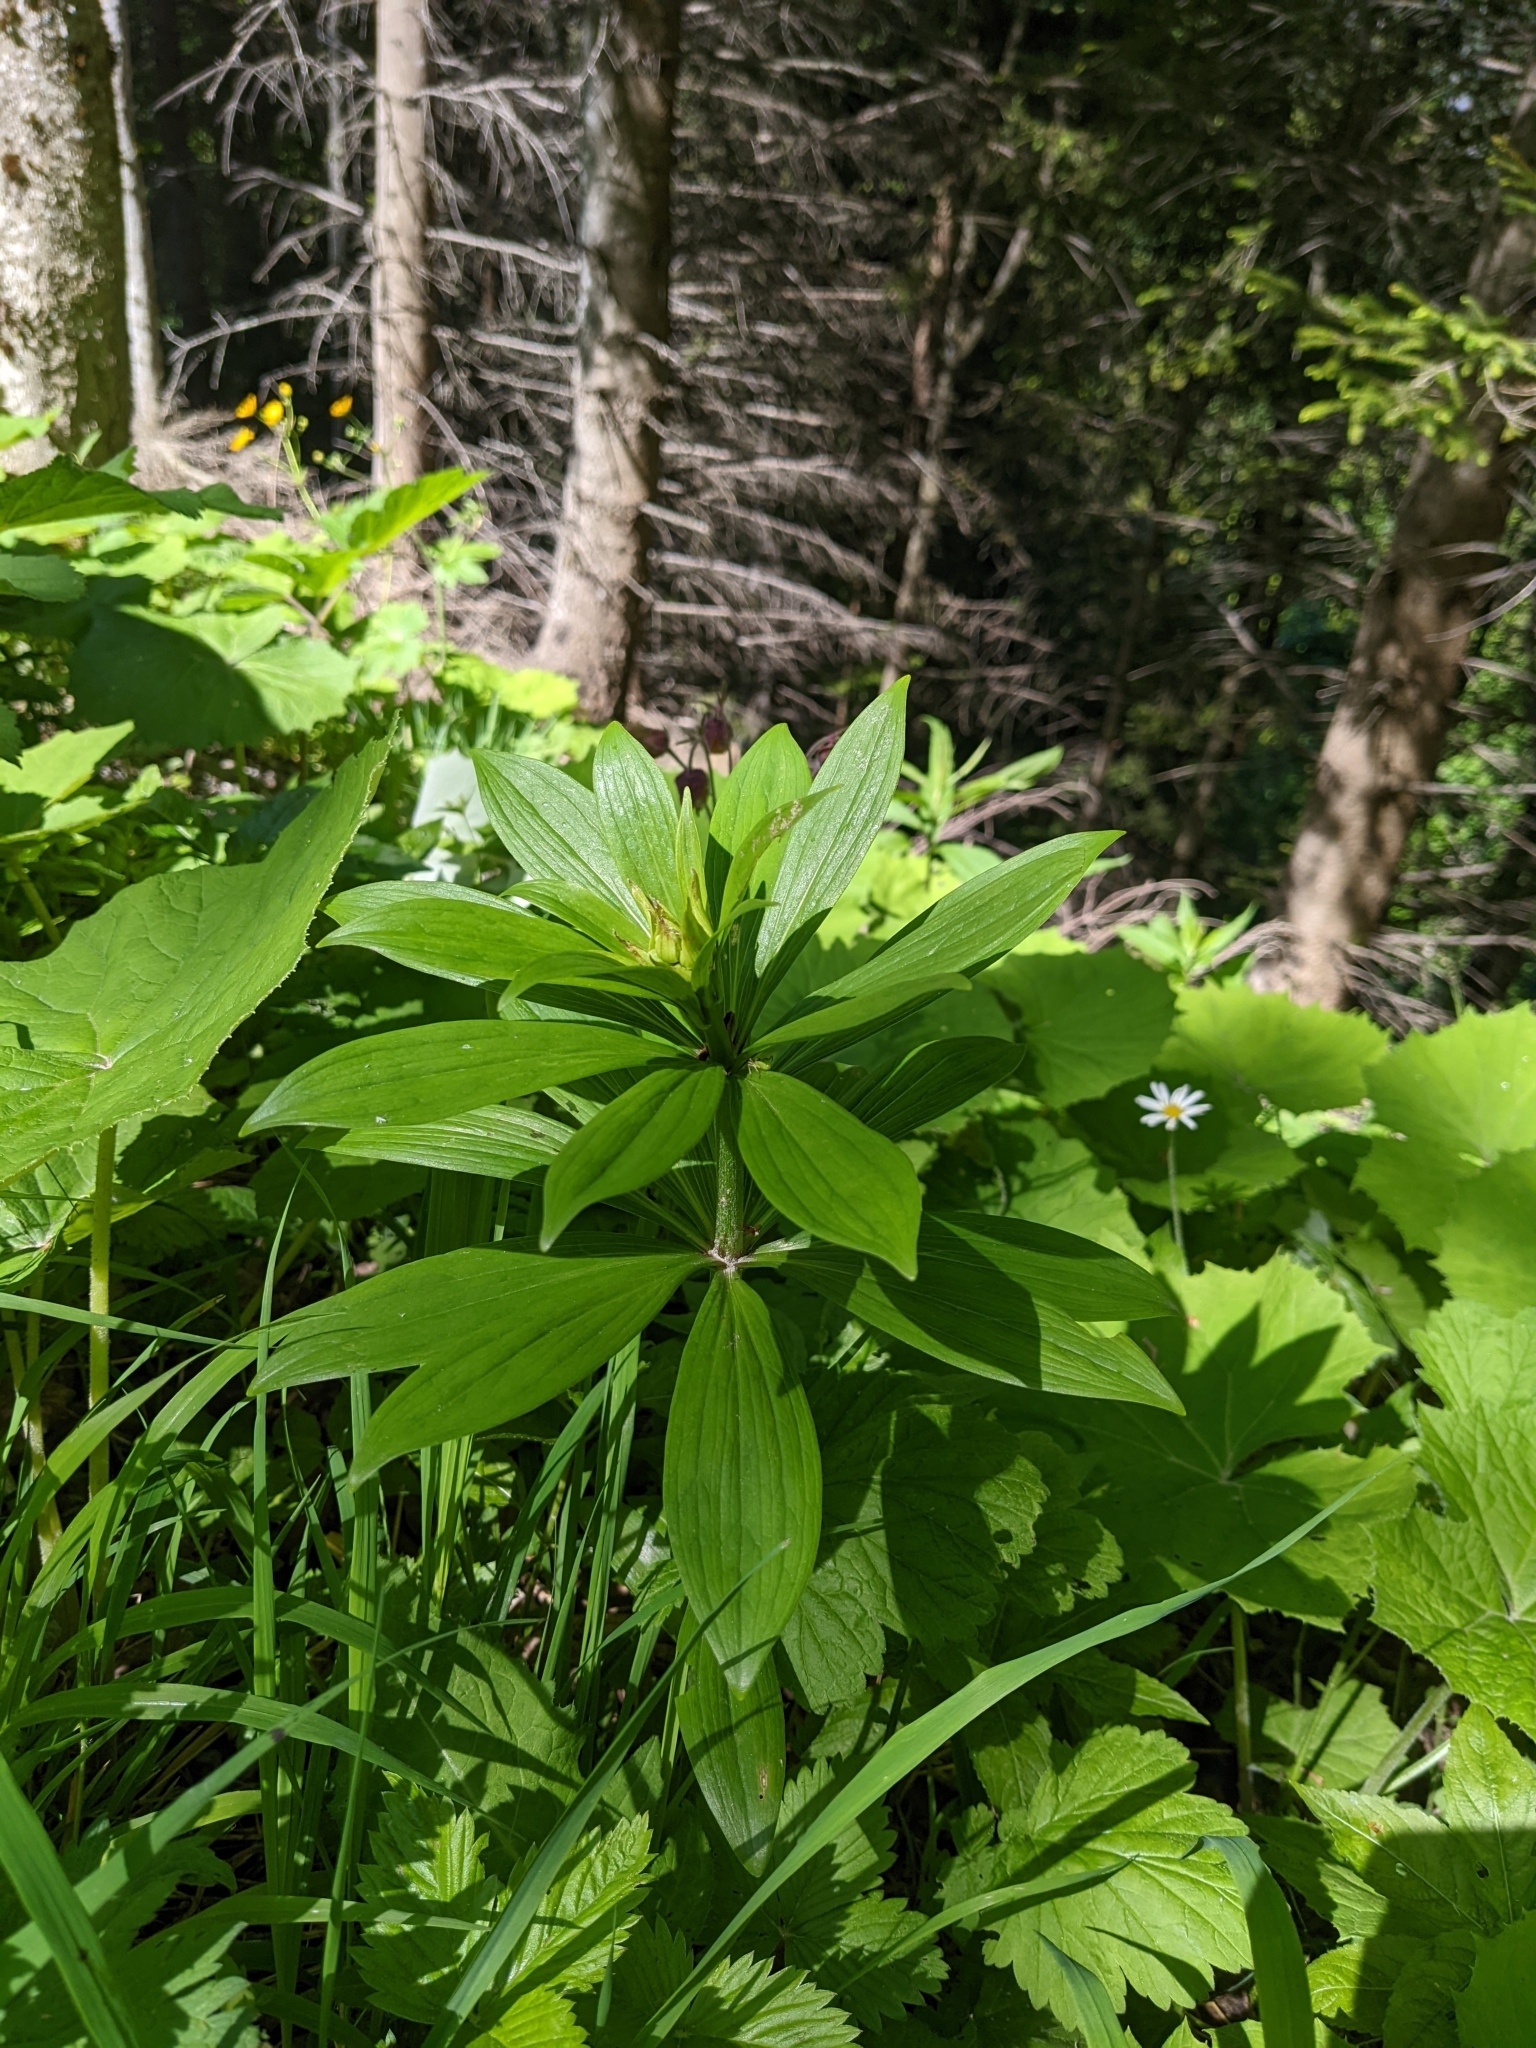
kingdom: Plantae
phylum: Tracheophyta
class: Liliopsida
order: Liliales
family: Liliaceae
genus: Lilium
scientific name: Lilium martagon
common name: Martagon lily
